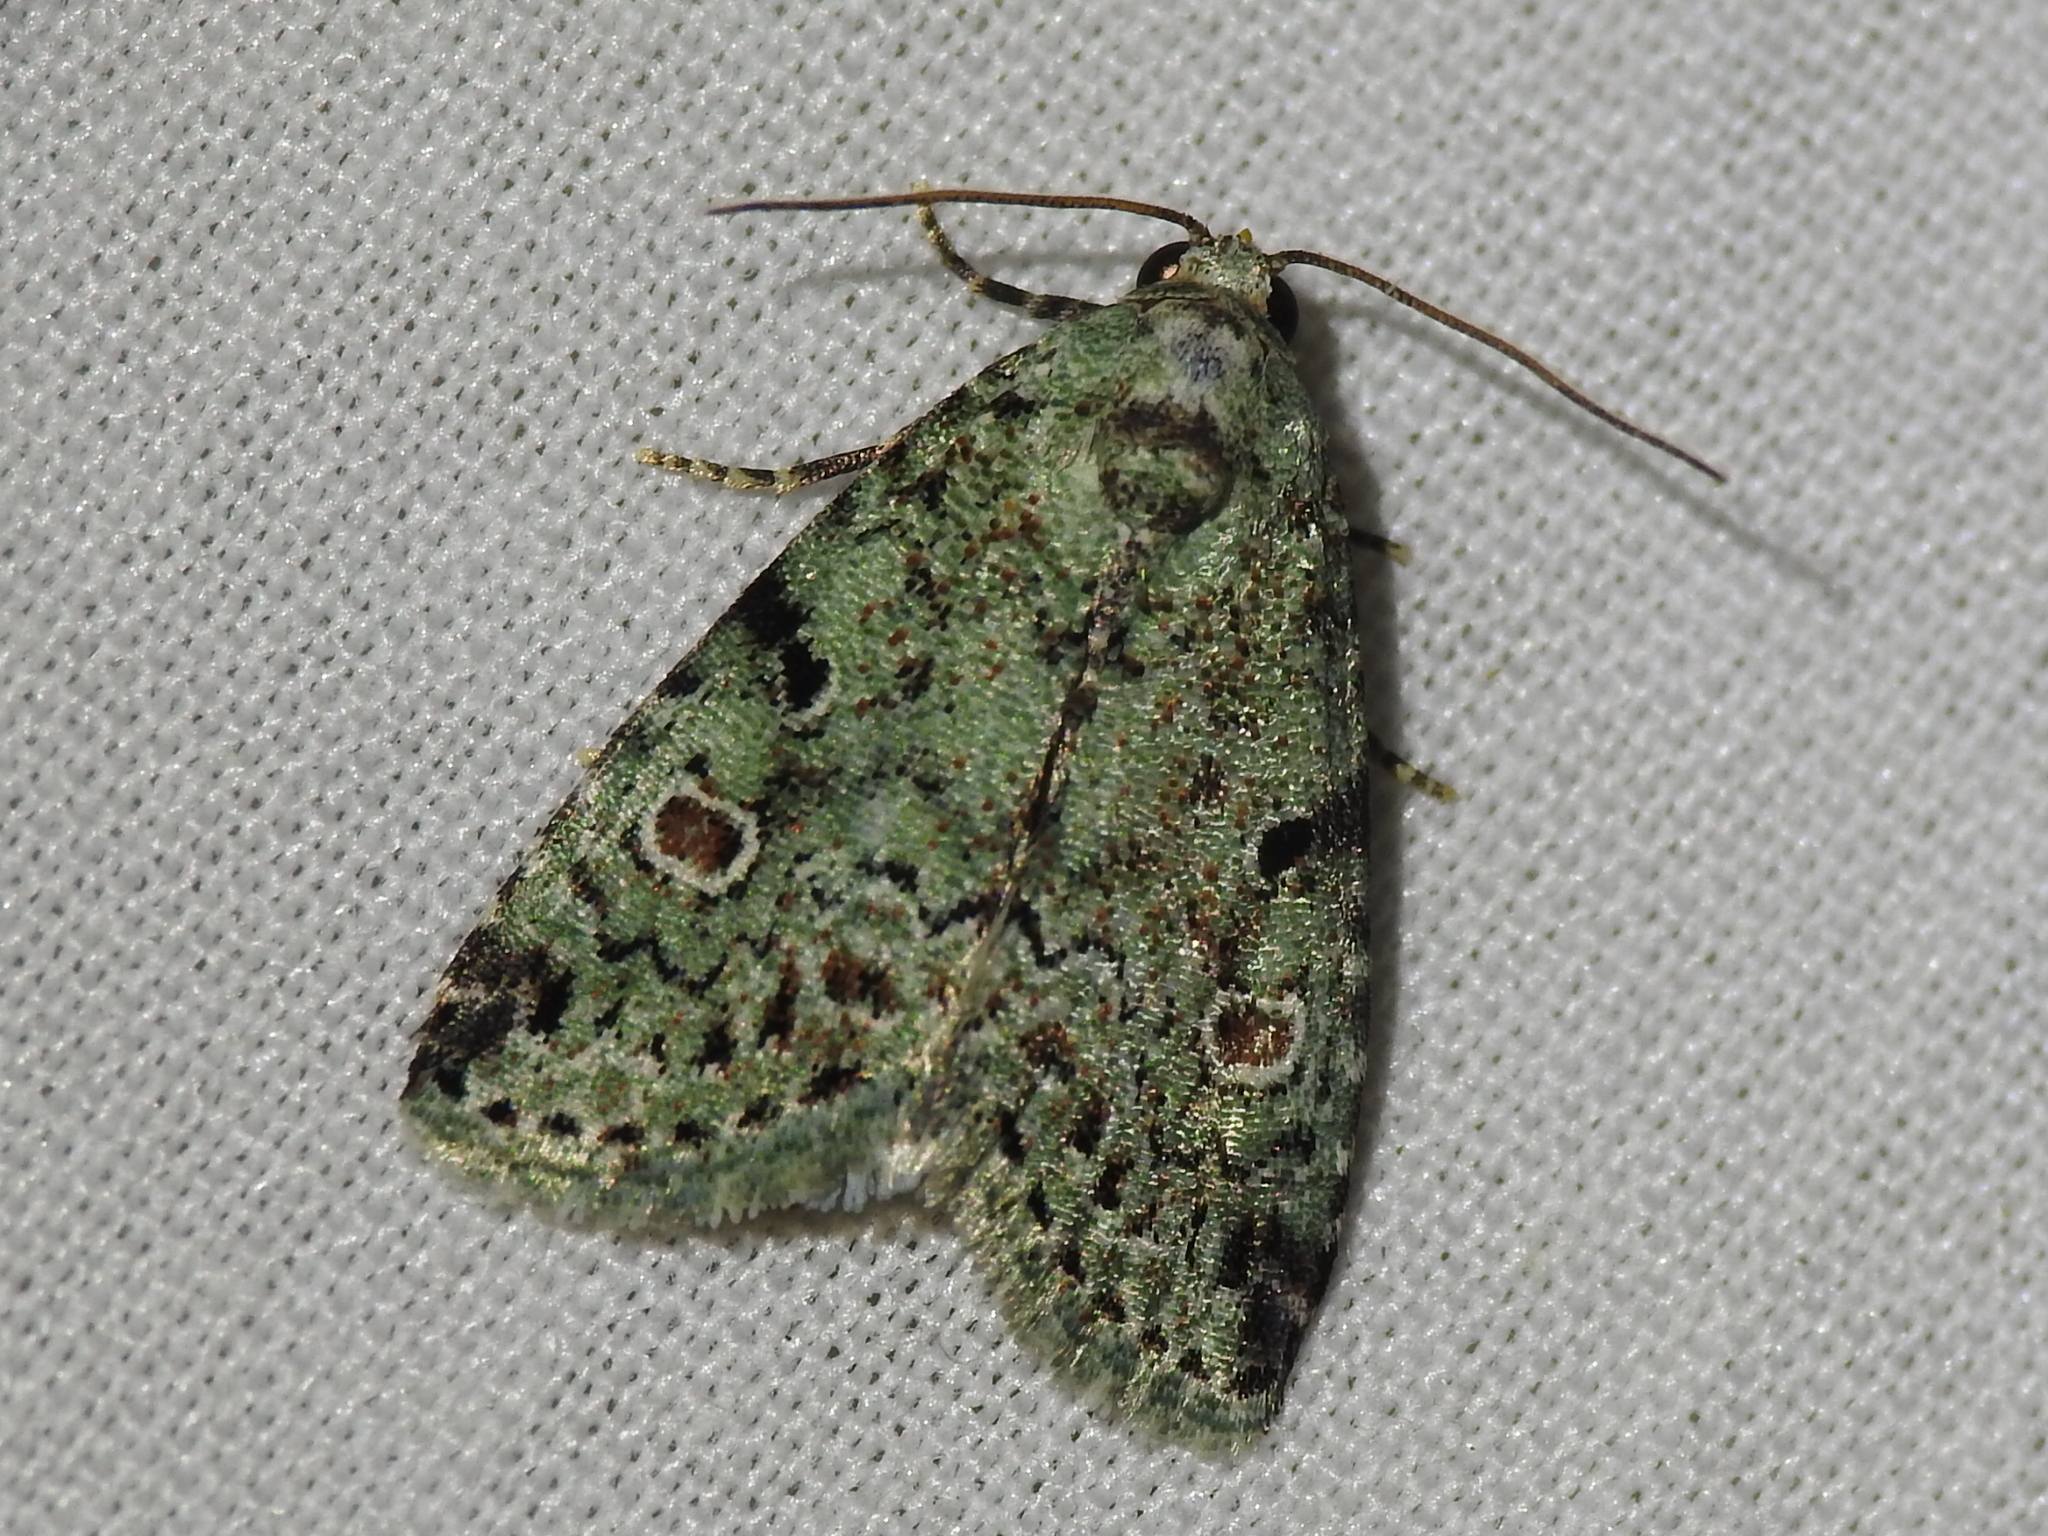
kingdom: Animalia
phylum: Arthropoda
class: Insecta
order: Lepidoptera
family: Noctuidae
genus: Maliattha
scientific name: Maliattha concinnimacula
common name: Red-spotted glyph
